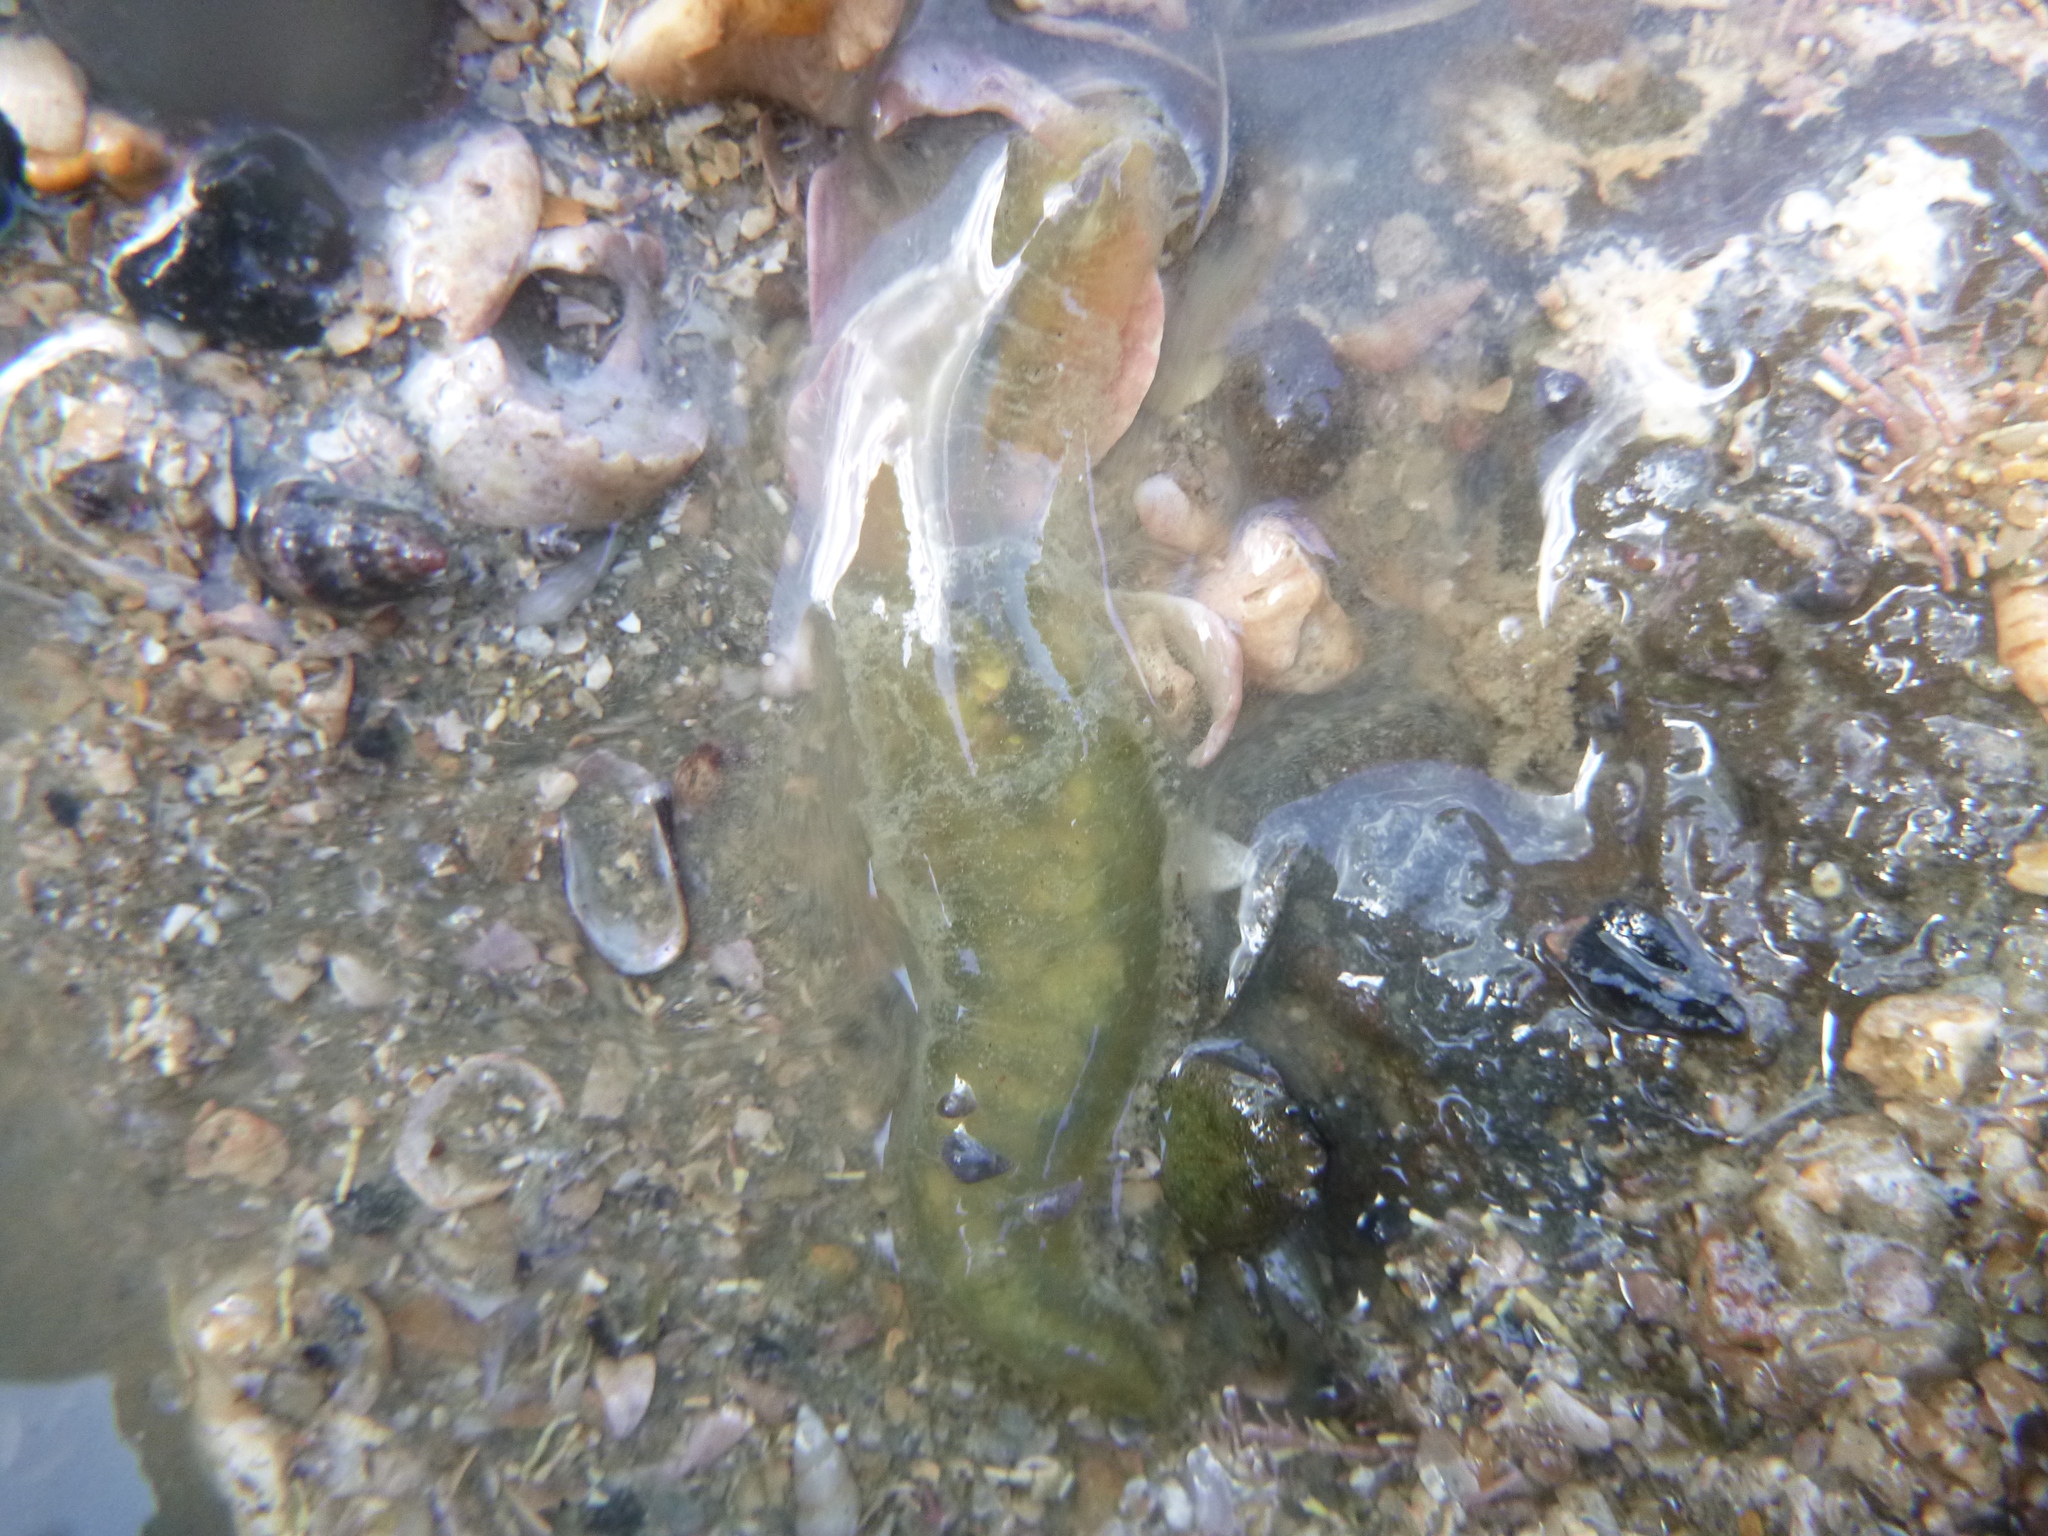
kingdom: Animalia
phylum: Annelida
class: Polychaeta
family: Flabelligeridae
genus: Flabelligera
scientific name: Flabelligera bicolor
